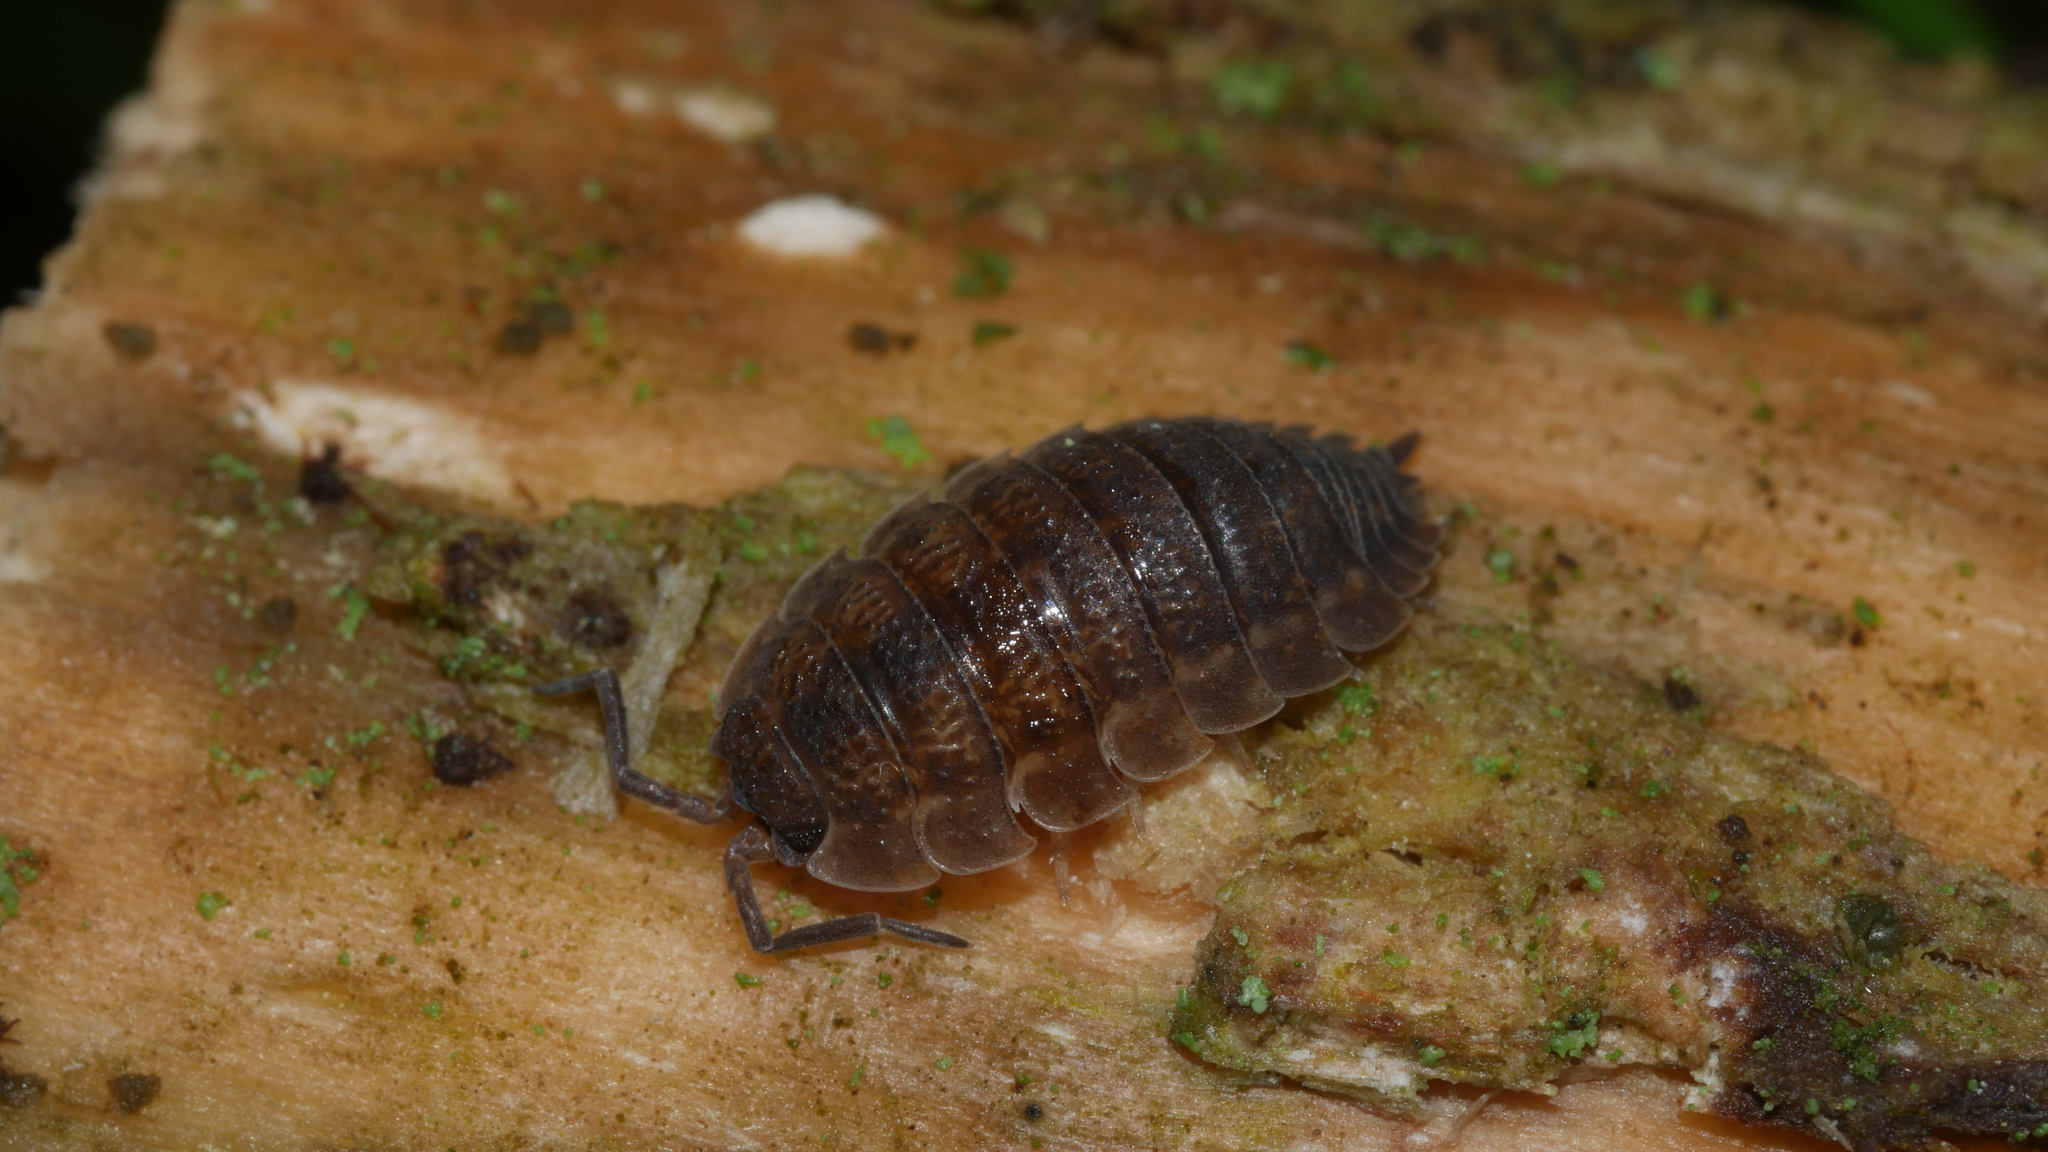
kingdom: Animalia
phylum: Arthropoda
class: Malacostraca
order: Isopoda
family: Porcellionidae
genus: Porcellio
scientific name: Porcellio scaber
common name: Common rough woodlouse
